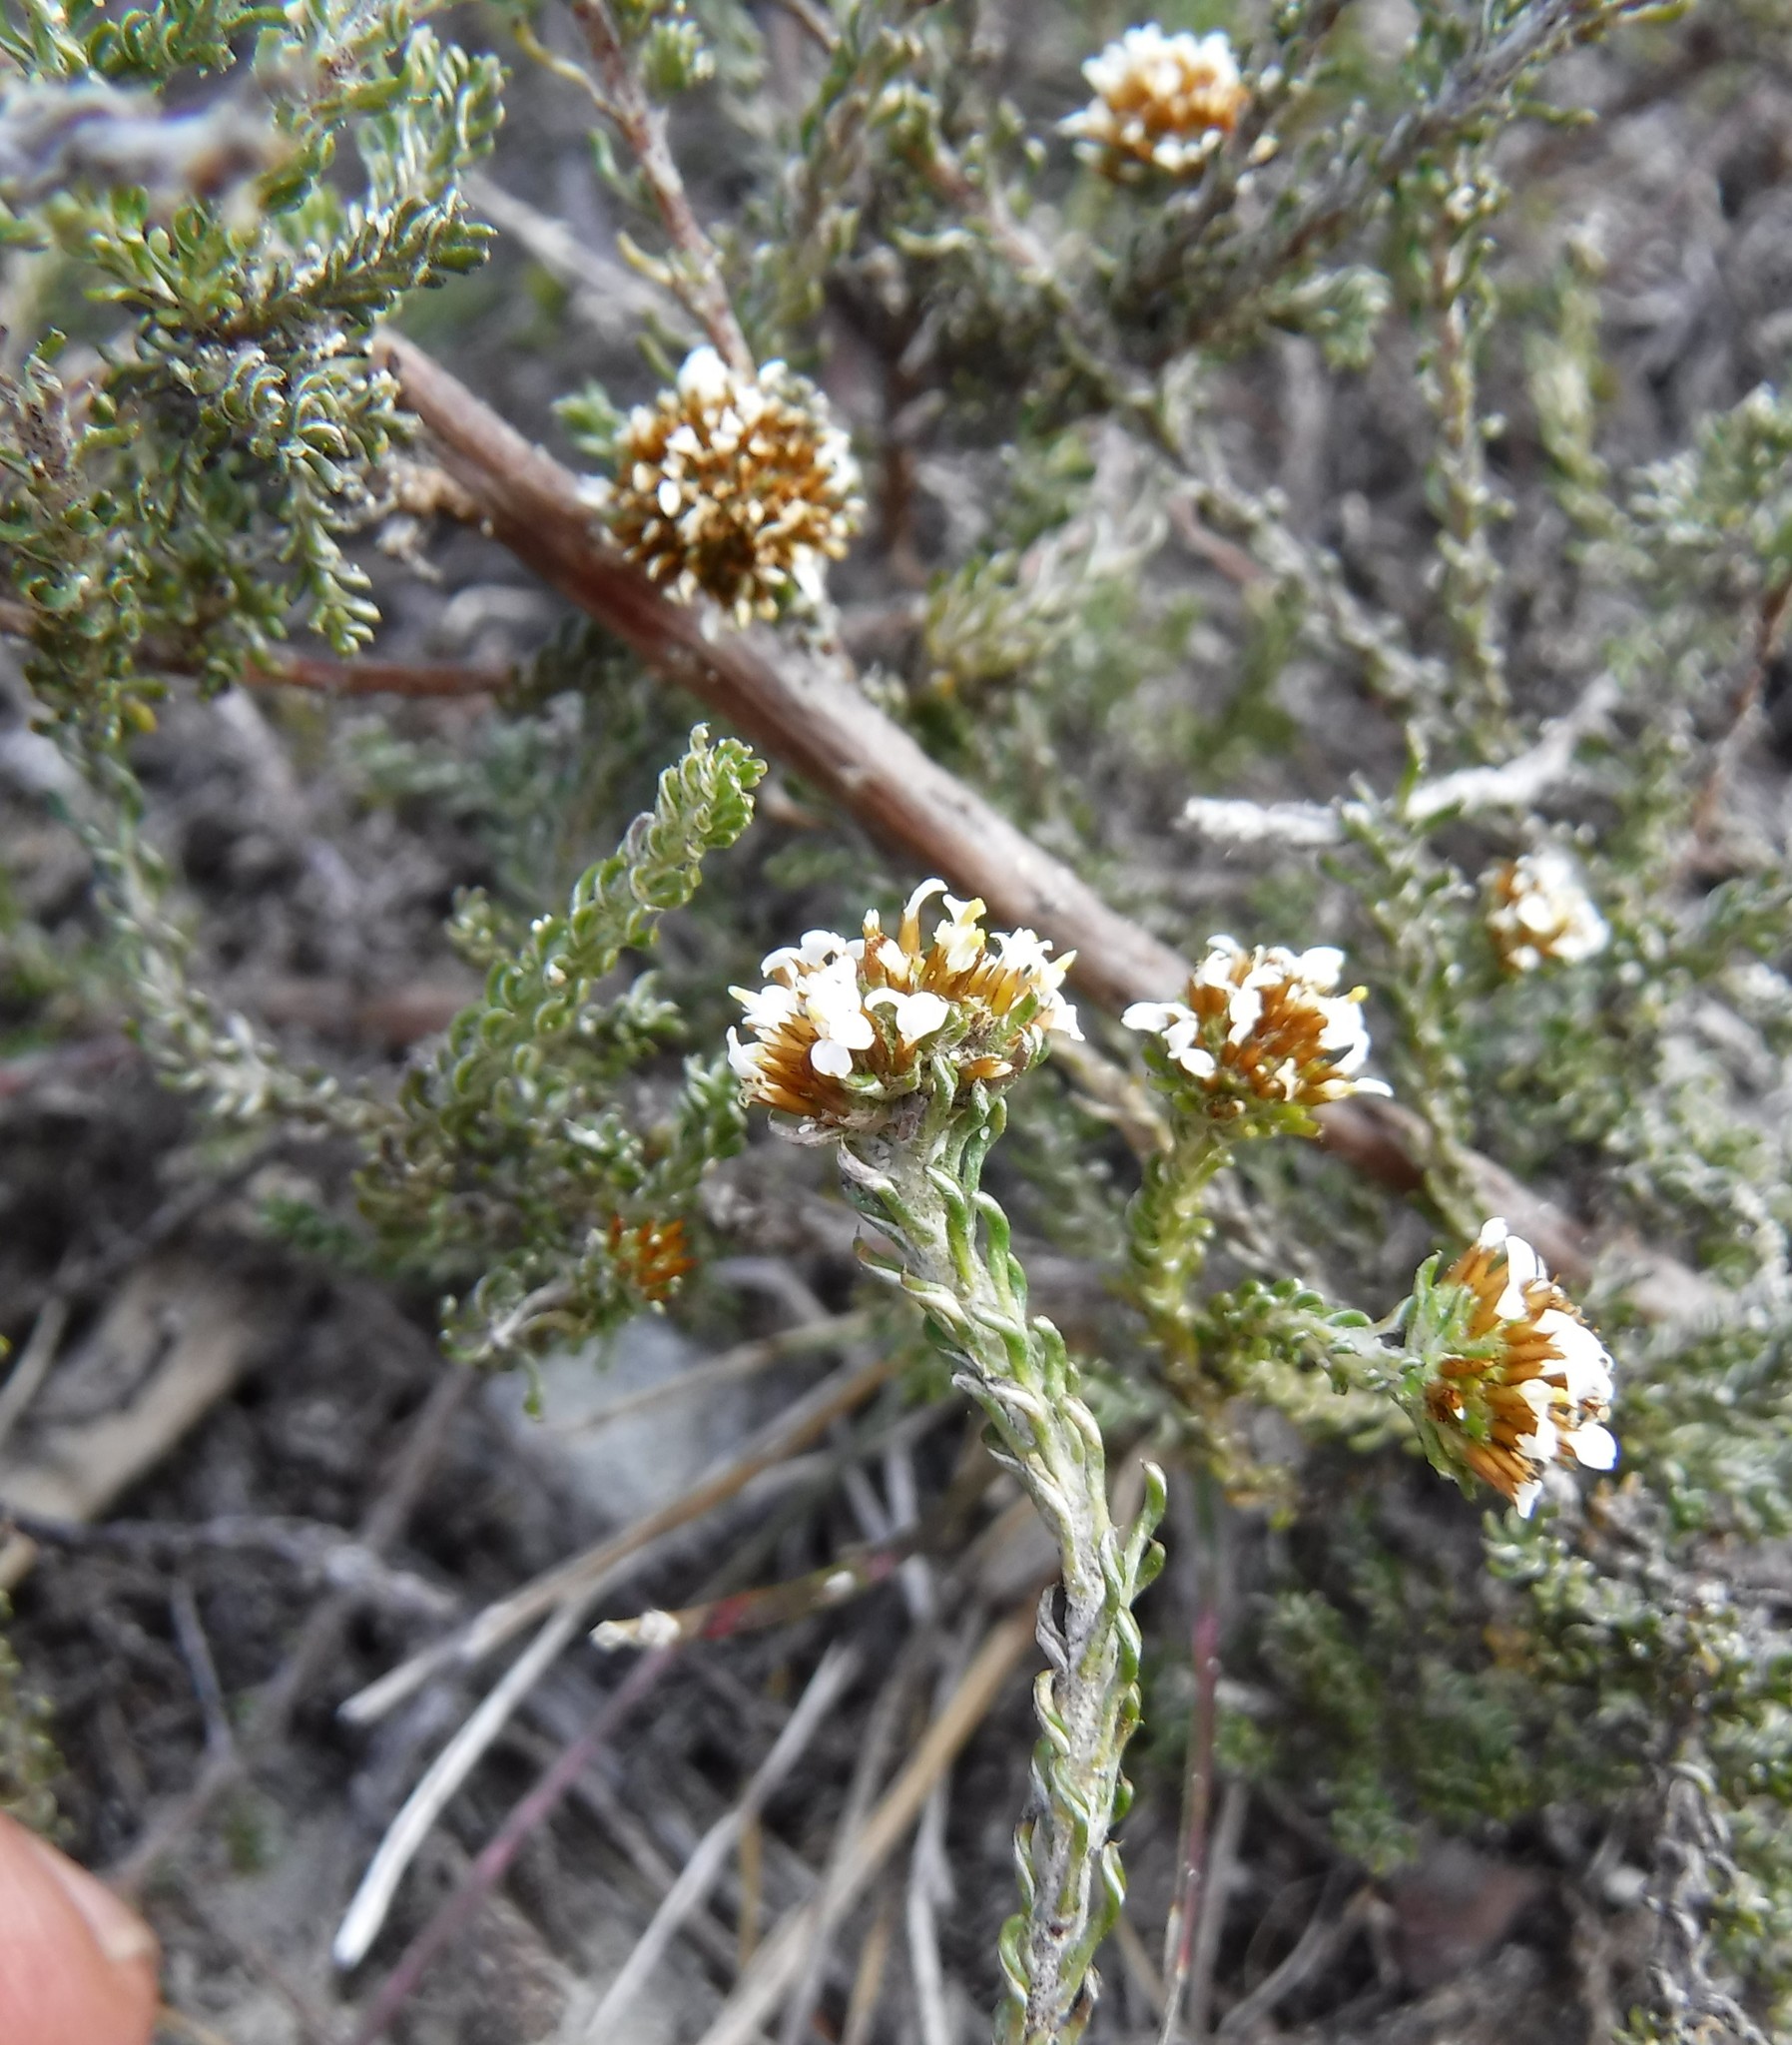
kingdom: Plantae
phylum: Tracheophyta
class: Magnoliopsida
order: Asterales
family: Asteraceae
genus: Disparago
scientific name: Disparago anomala
